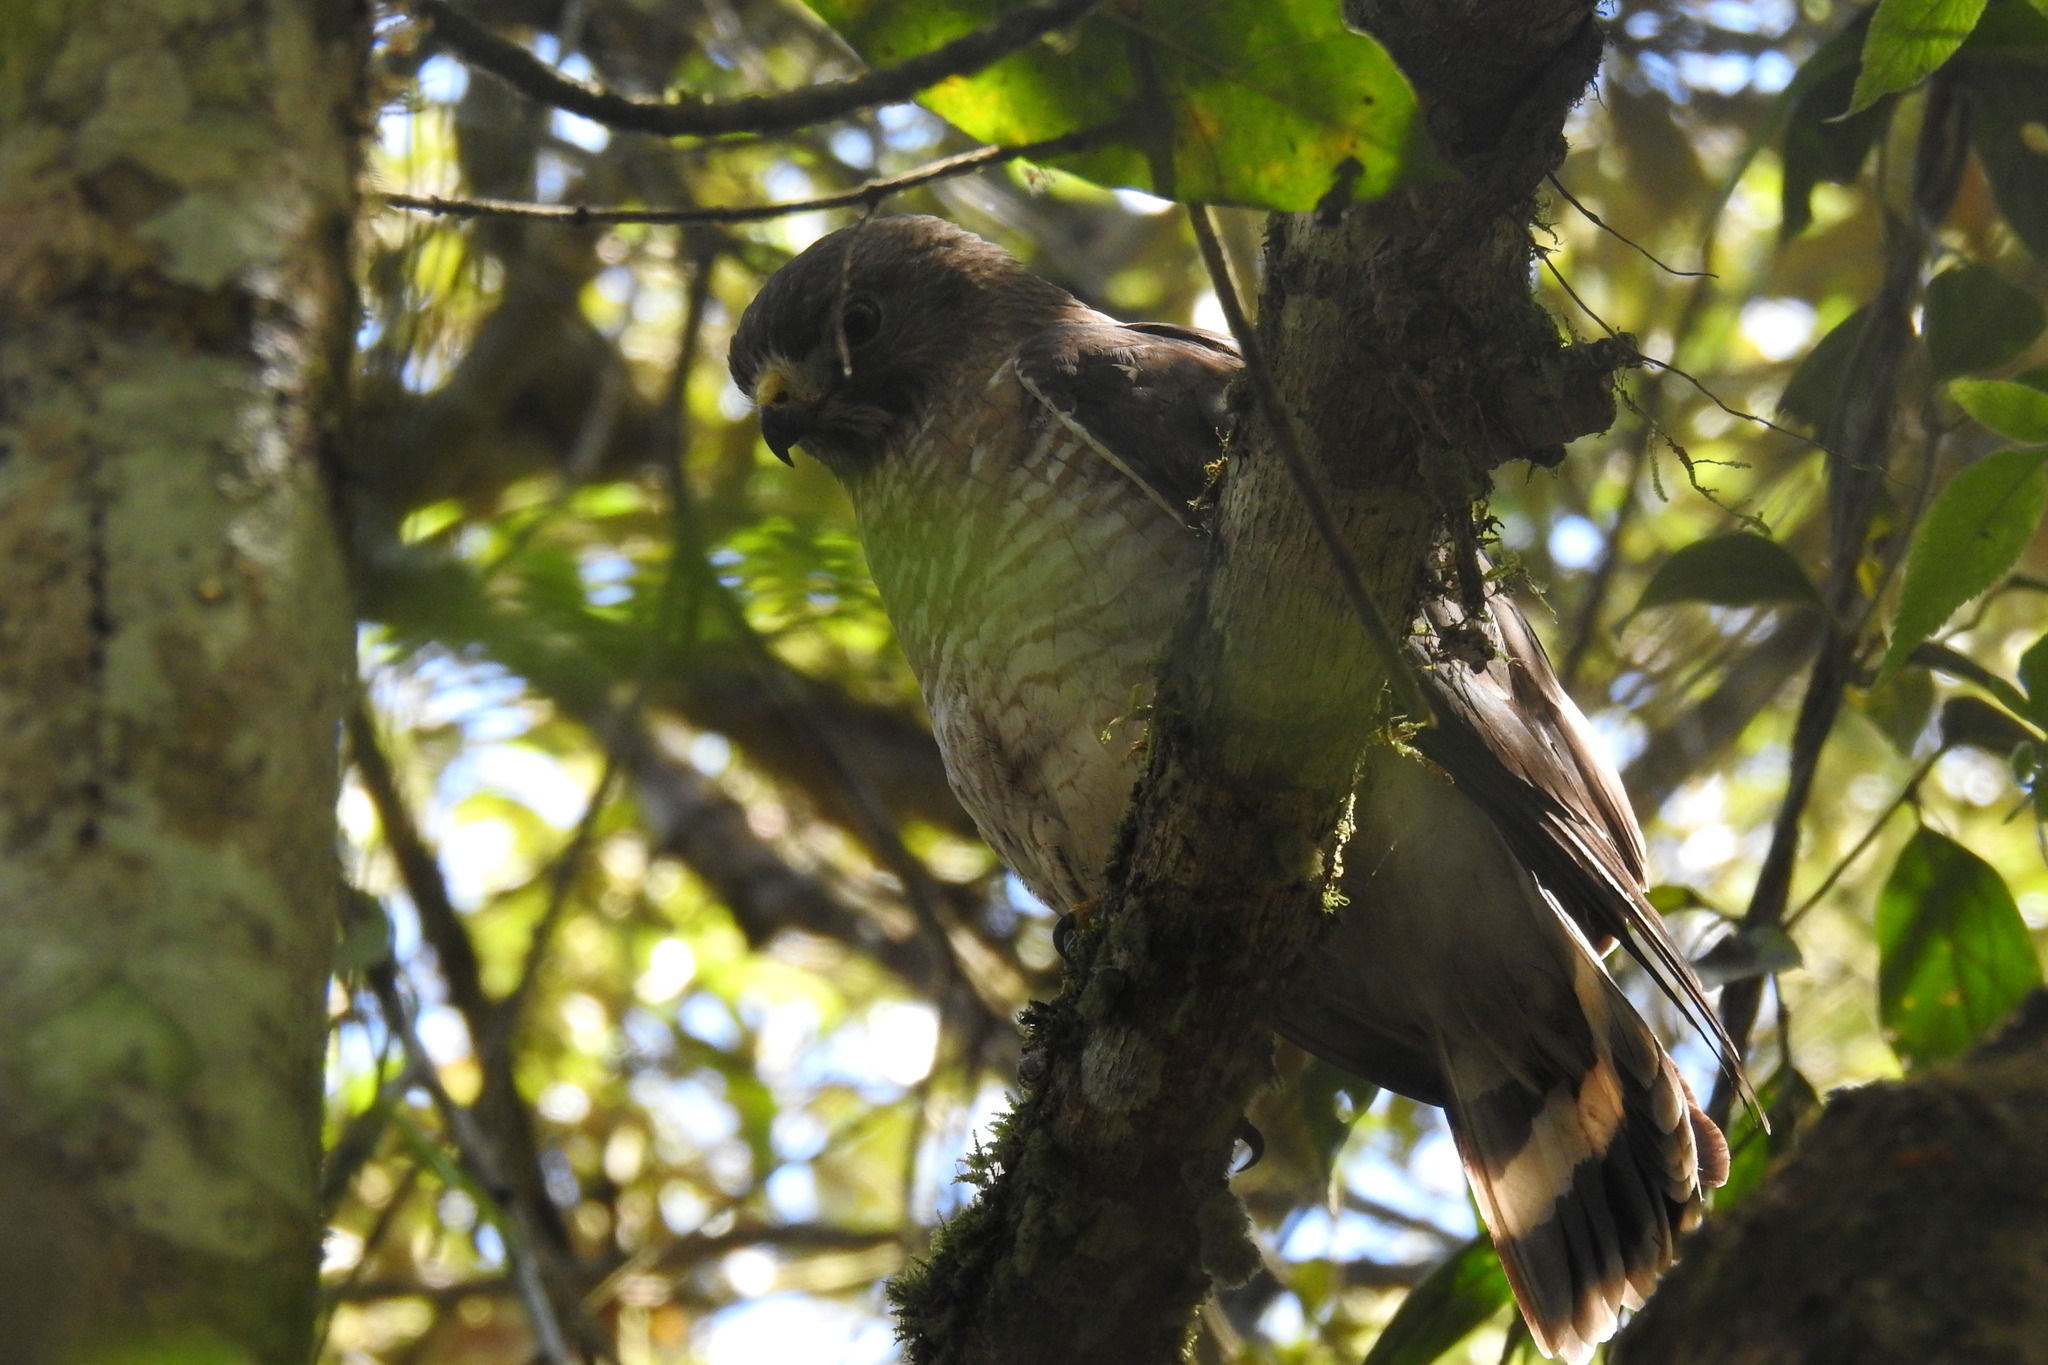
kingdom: Animalia
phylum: Chordata
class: Aves
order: Accipitriformes
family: Accipitridae
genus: Buteo
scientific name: Buteo platypterus
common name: Broad-winged hawk
